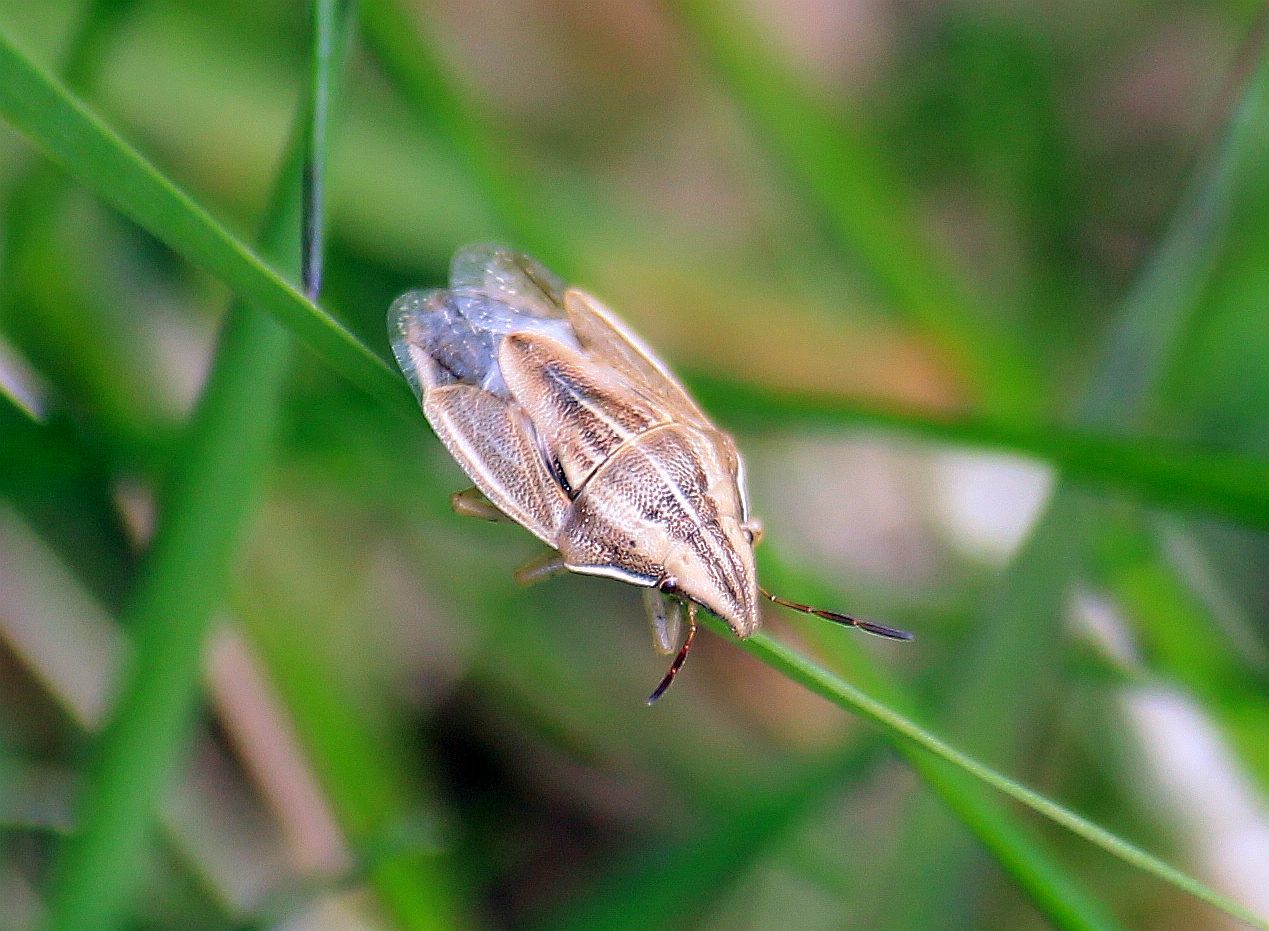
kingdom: Animalia
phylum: Arthropoda
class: Insecta
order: Hemiptera
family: Pentatomidae
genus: Aelia
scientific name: Aelia acuminata
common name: Bishop's mitre
